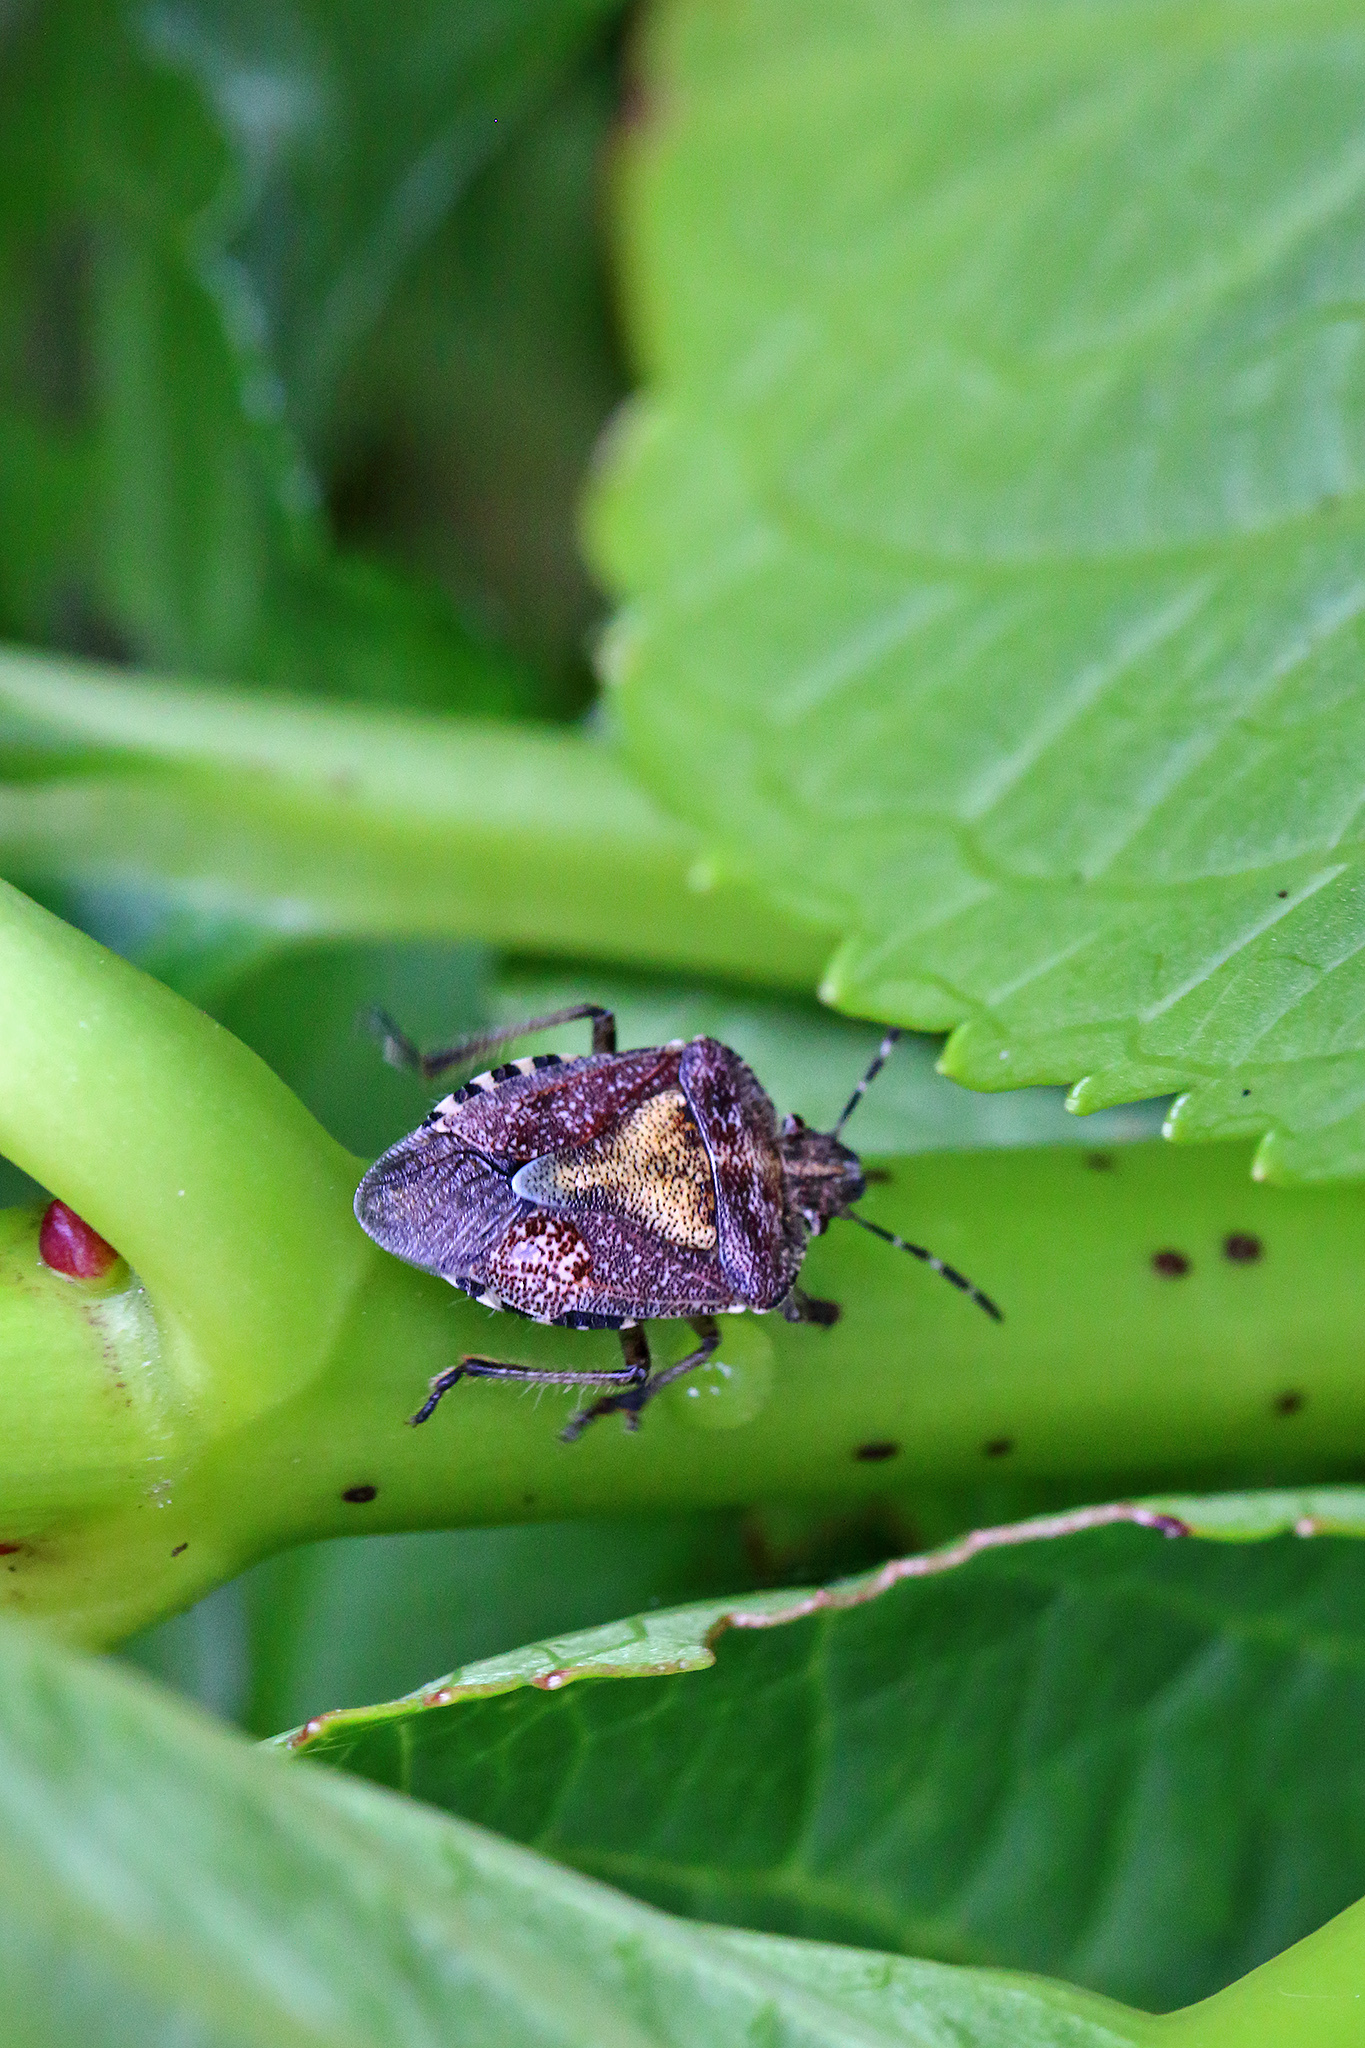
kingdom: Animalia
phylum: Arthropoda
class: Insecta
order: Hemiptera
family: Pentatomidae
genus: Dolycoris
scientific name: Dolycoris baccarum
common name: Sloe bug
